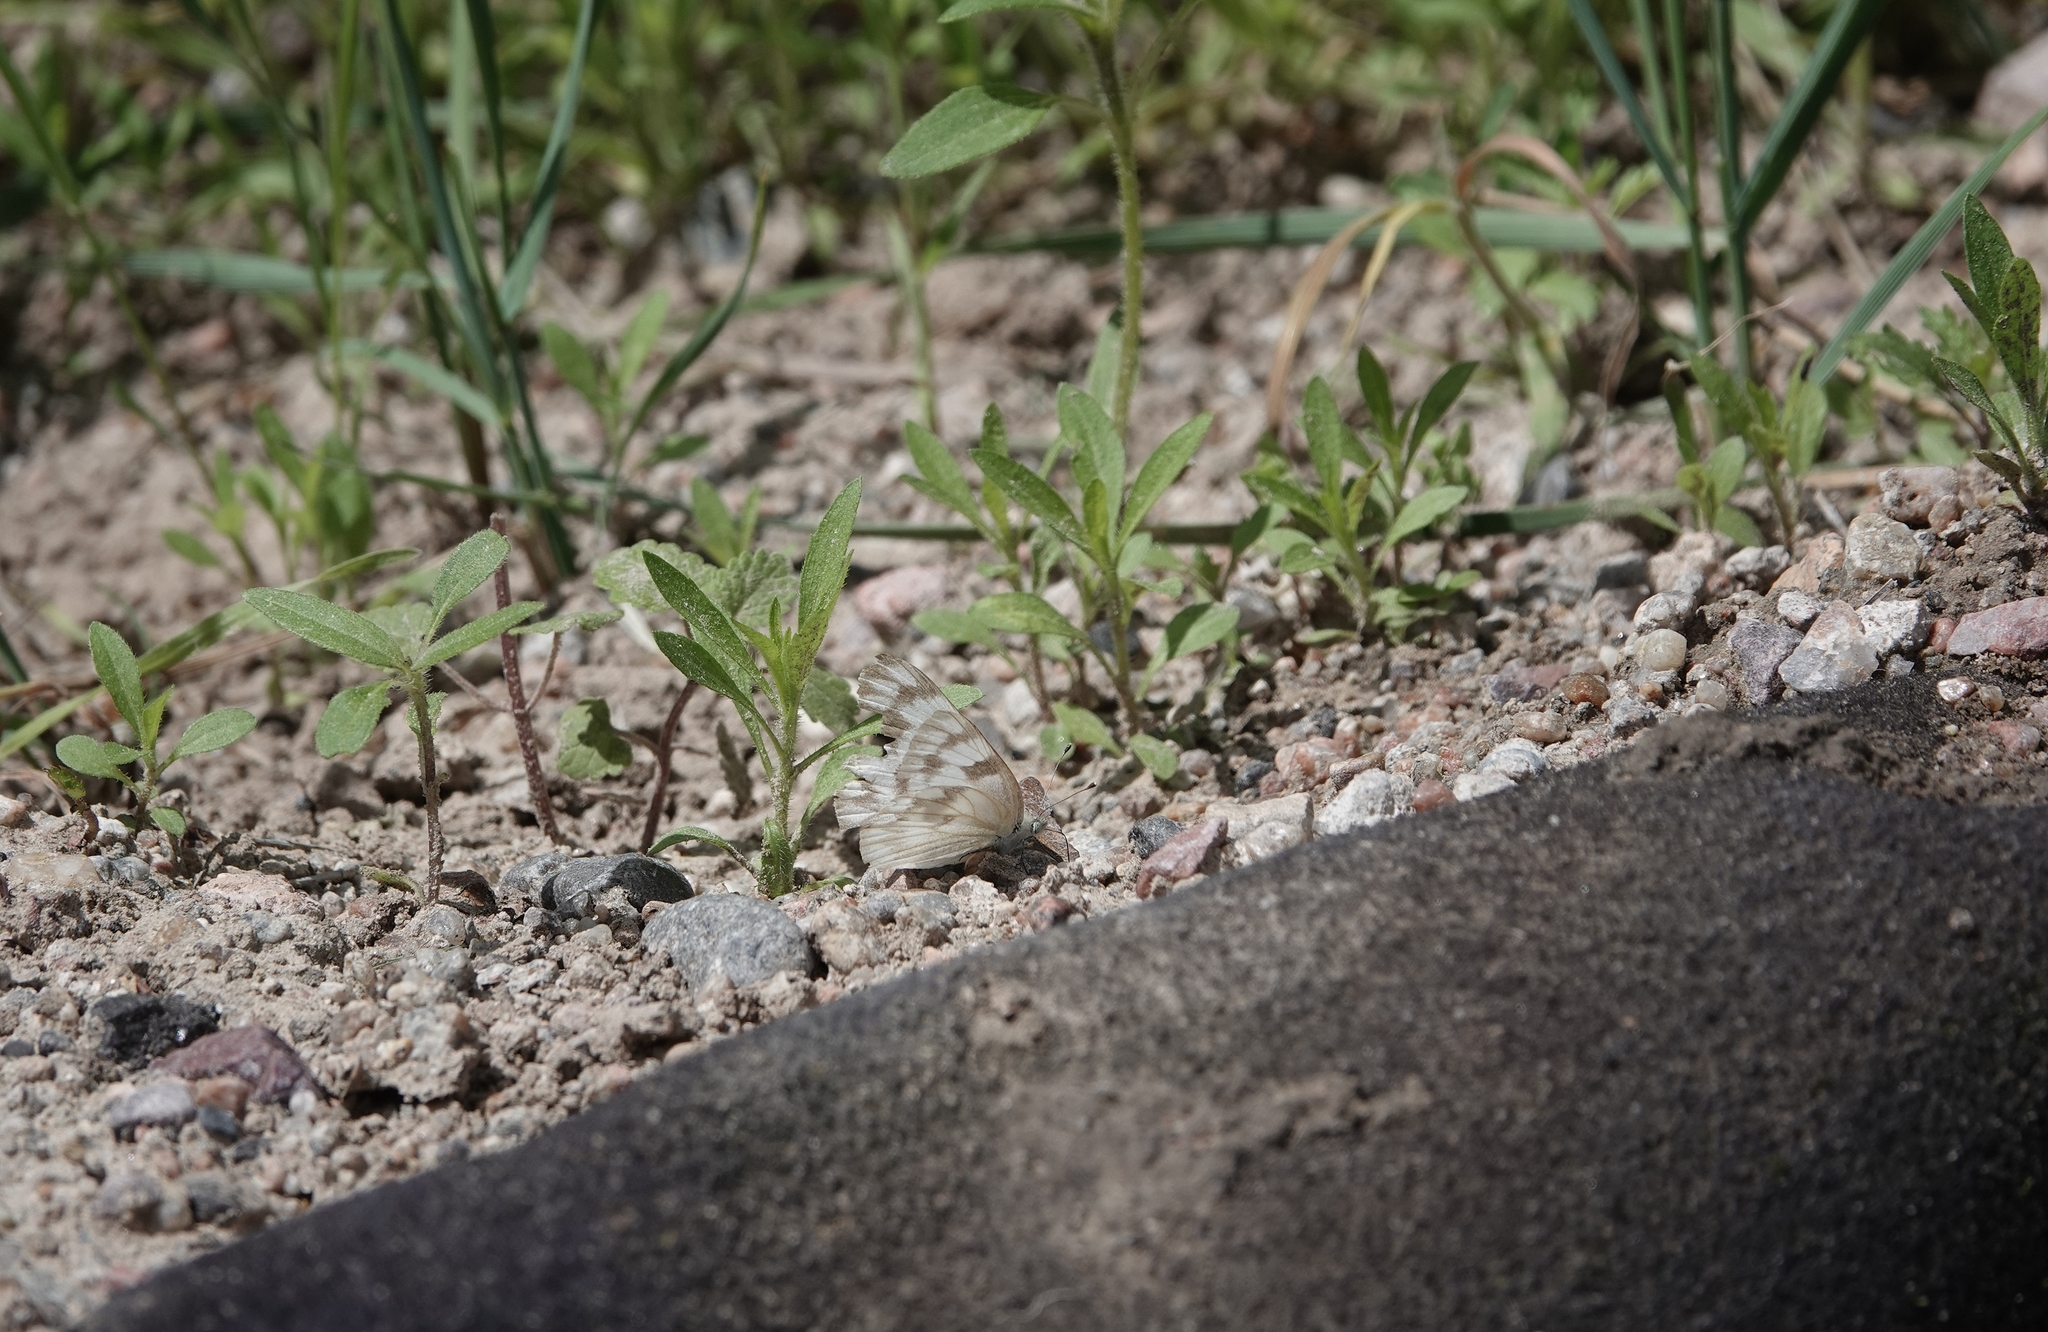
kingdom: Animalia
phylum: Arthropoda
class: Insecta
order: Lepidoptera
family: Pieridae
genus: Pontia
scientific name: Pontia protodice
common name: Checkered white
